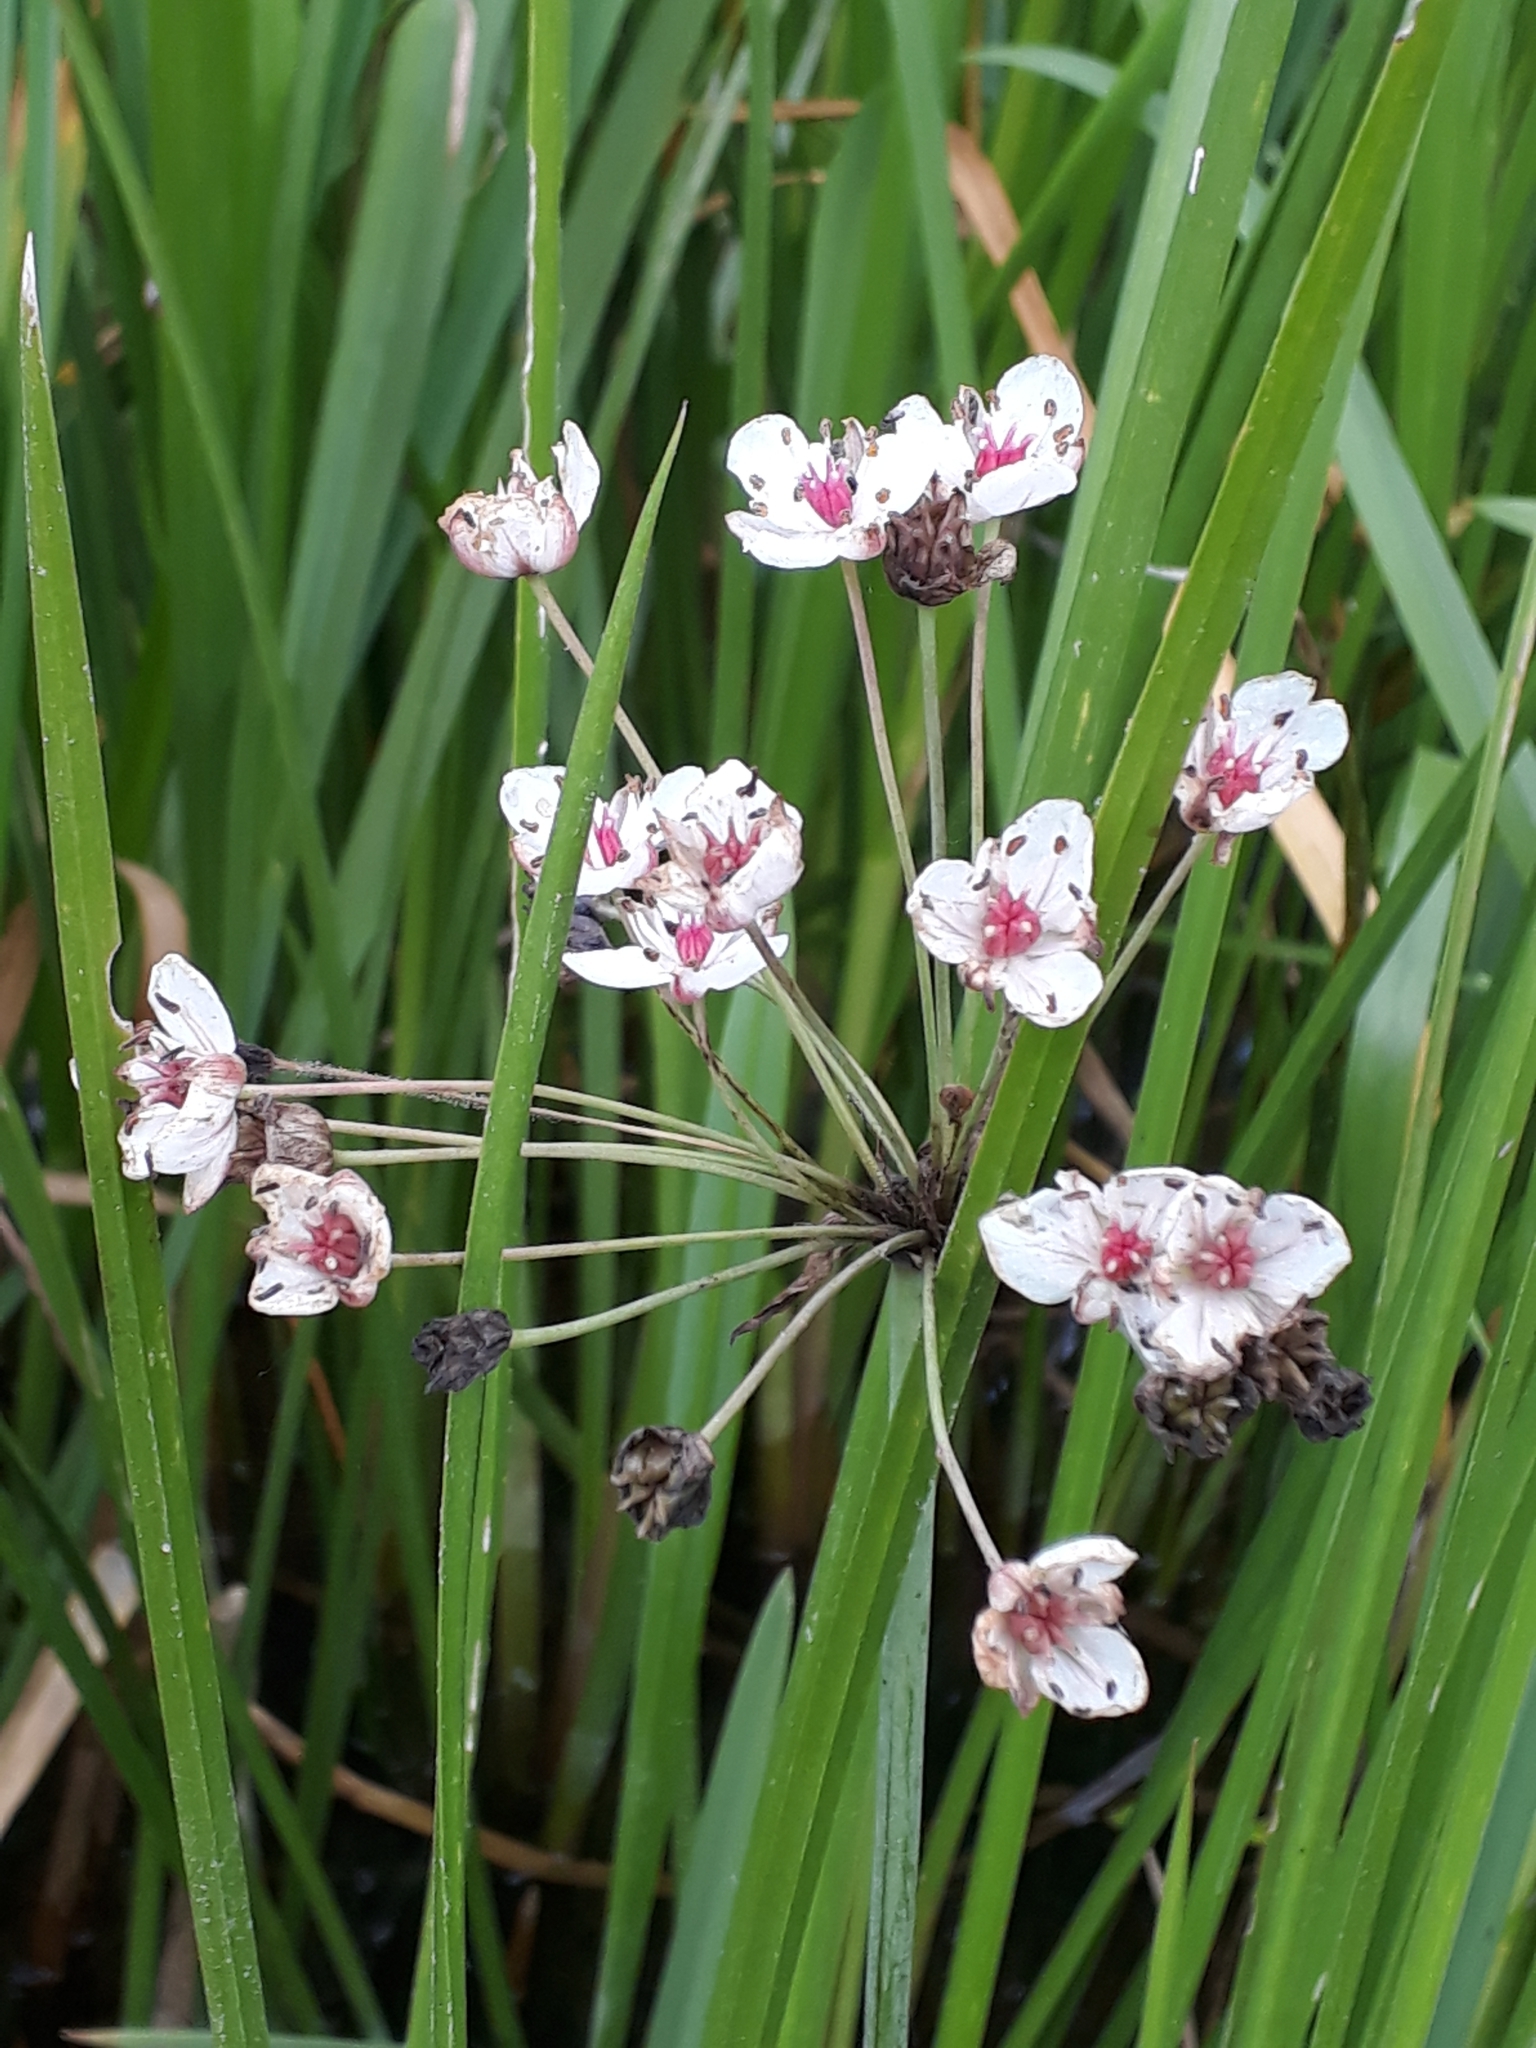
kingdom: Plantae
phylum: Tracheophyta
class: Liliopsida
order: Alismatales
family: Butomaceae
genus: Butomus
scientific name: Butomus umbellatus
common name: Flowering-rush
